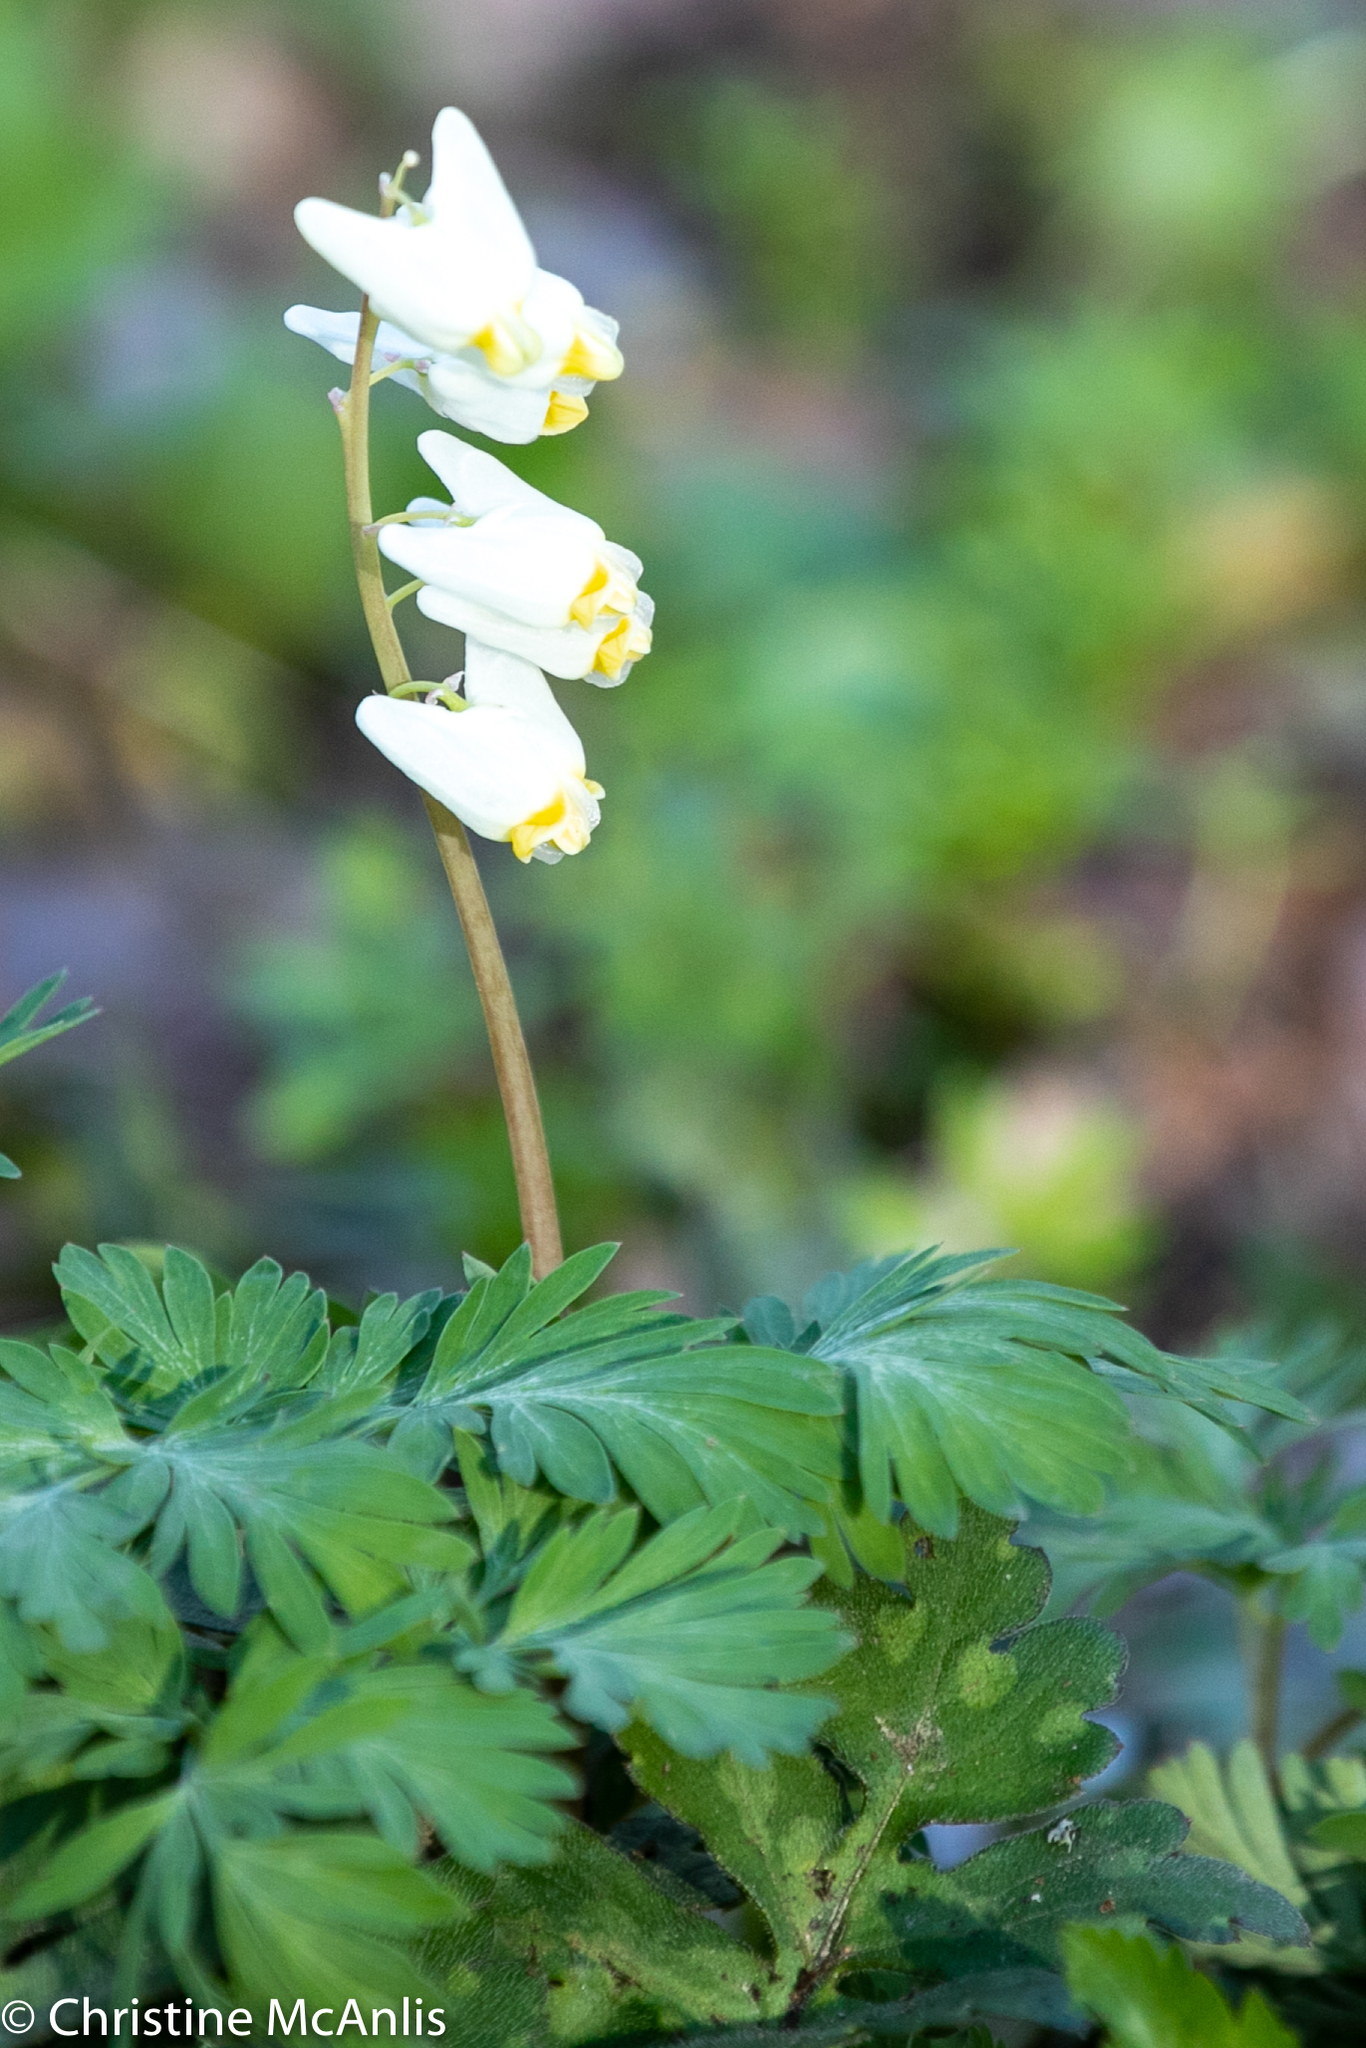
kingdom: Plantae
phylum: Tracheophyta
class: Magnoliopsida
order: Ranunculales
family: Papaveraceae
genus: Dicentra
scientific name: Dicentra cucullaria
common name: Dutchman's breeches
